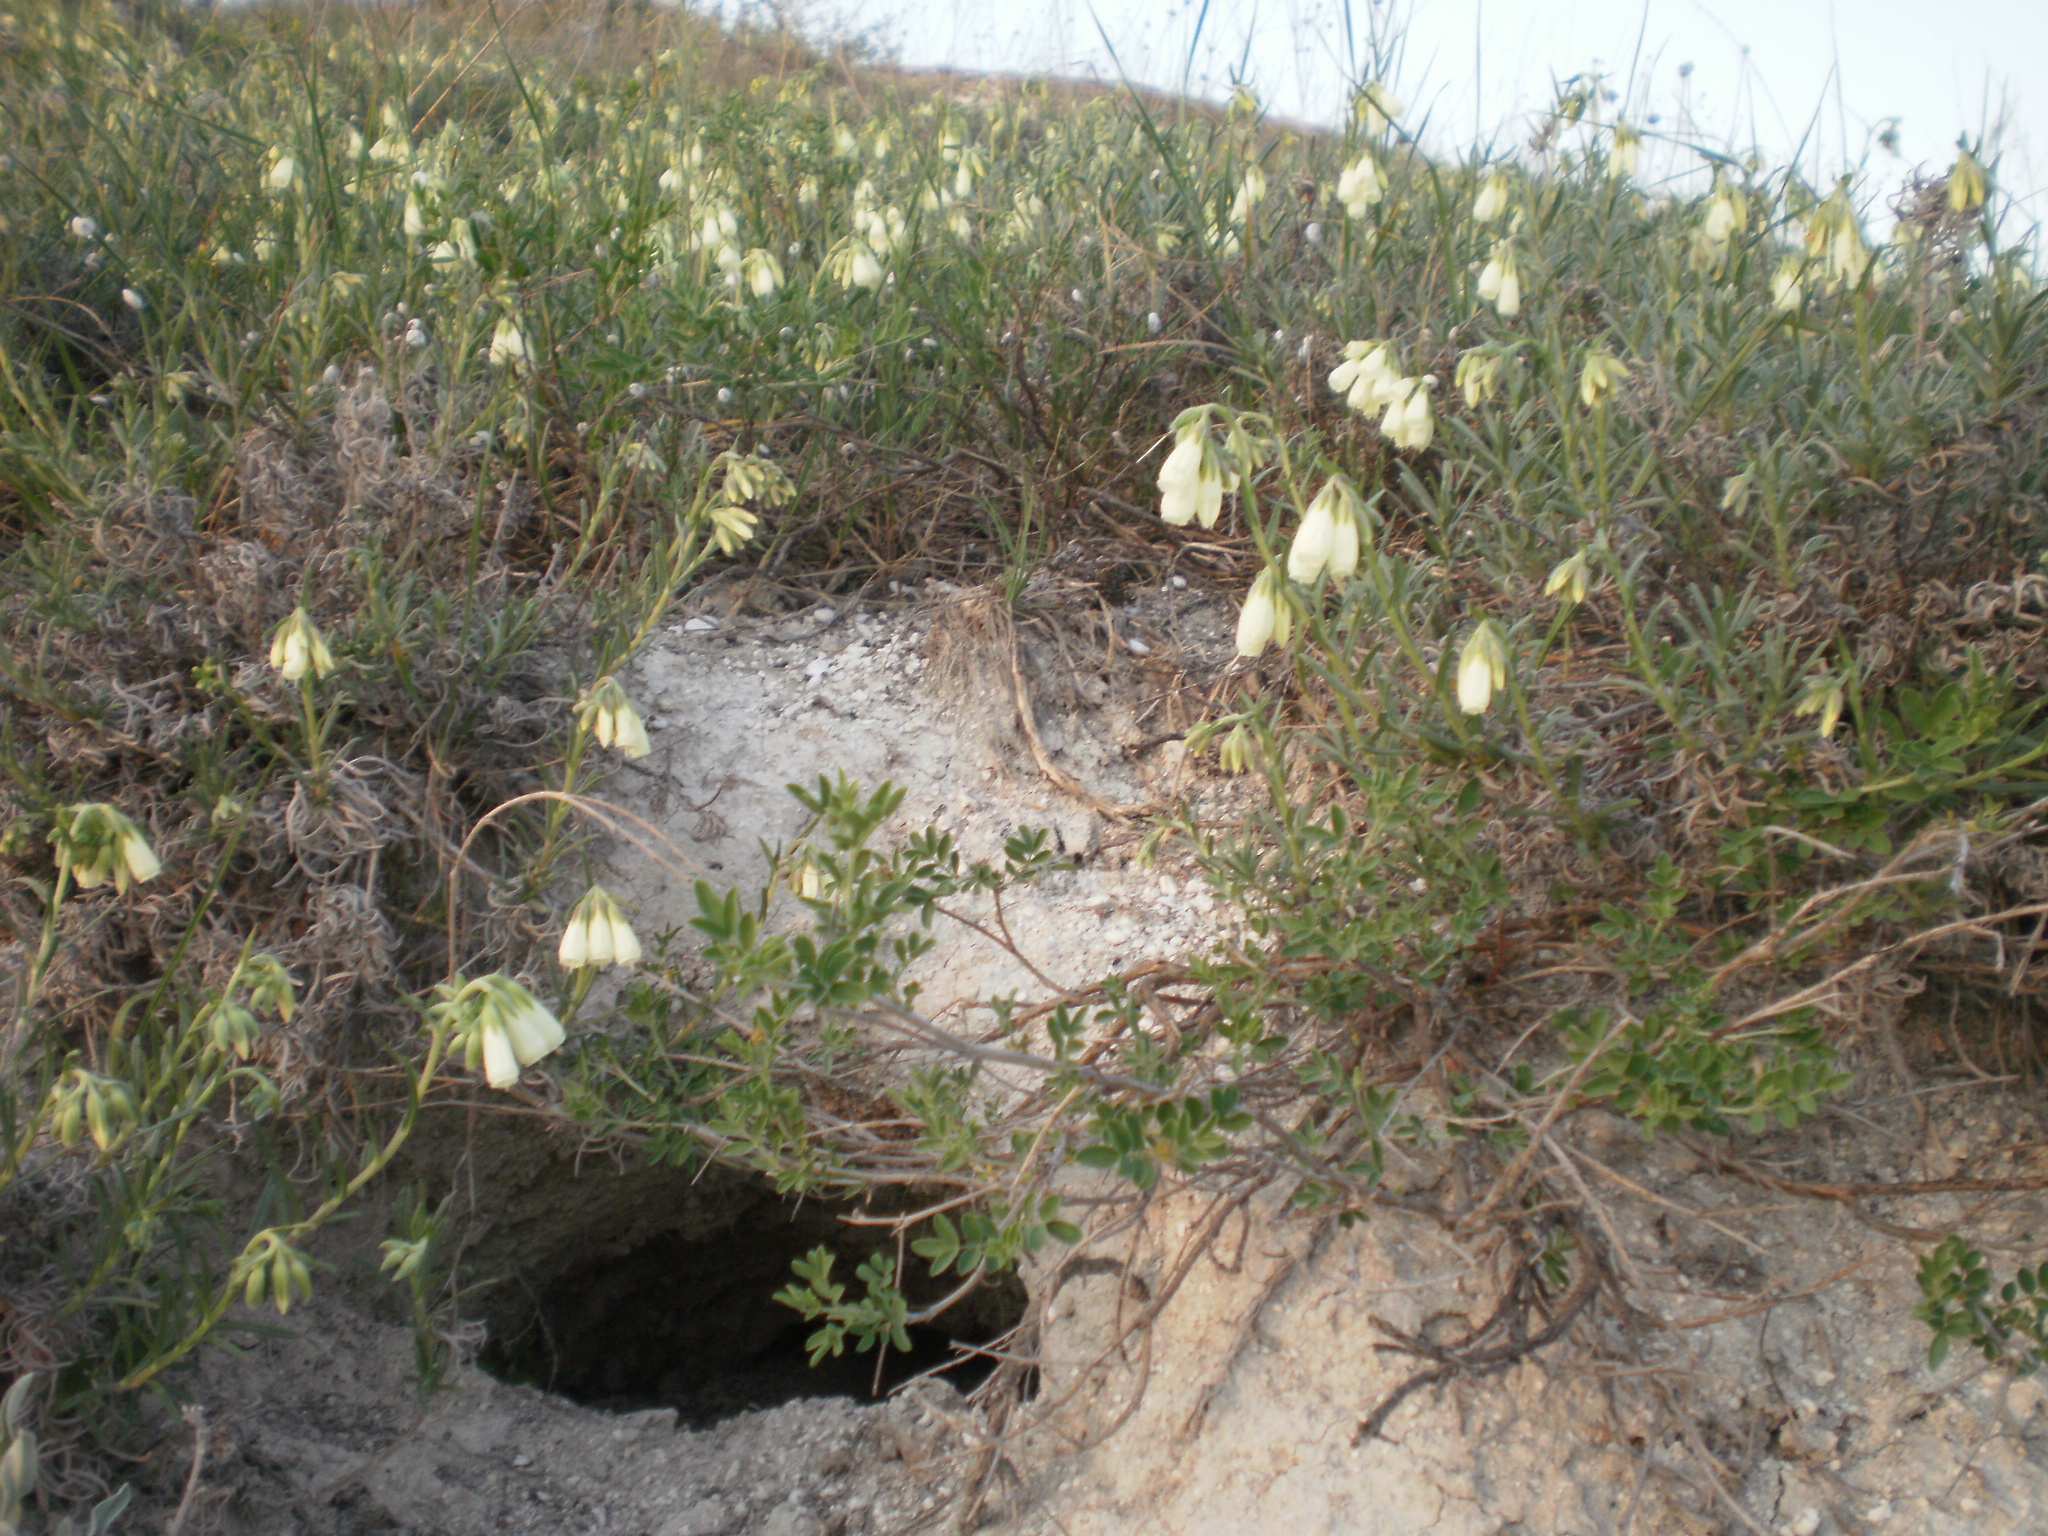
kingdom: Plantae
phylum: Tracheophyta
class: Magnoliopsida
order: Boraginales
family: Boraginaceae
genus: Onosma
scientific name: Onosma simplicissima
